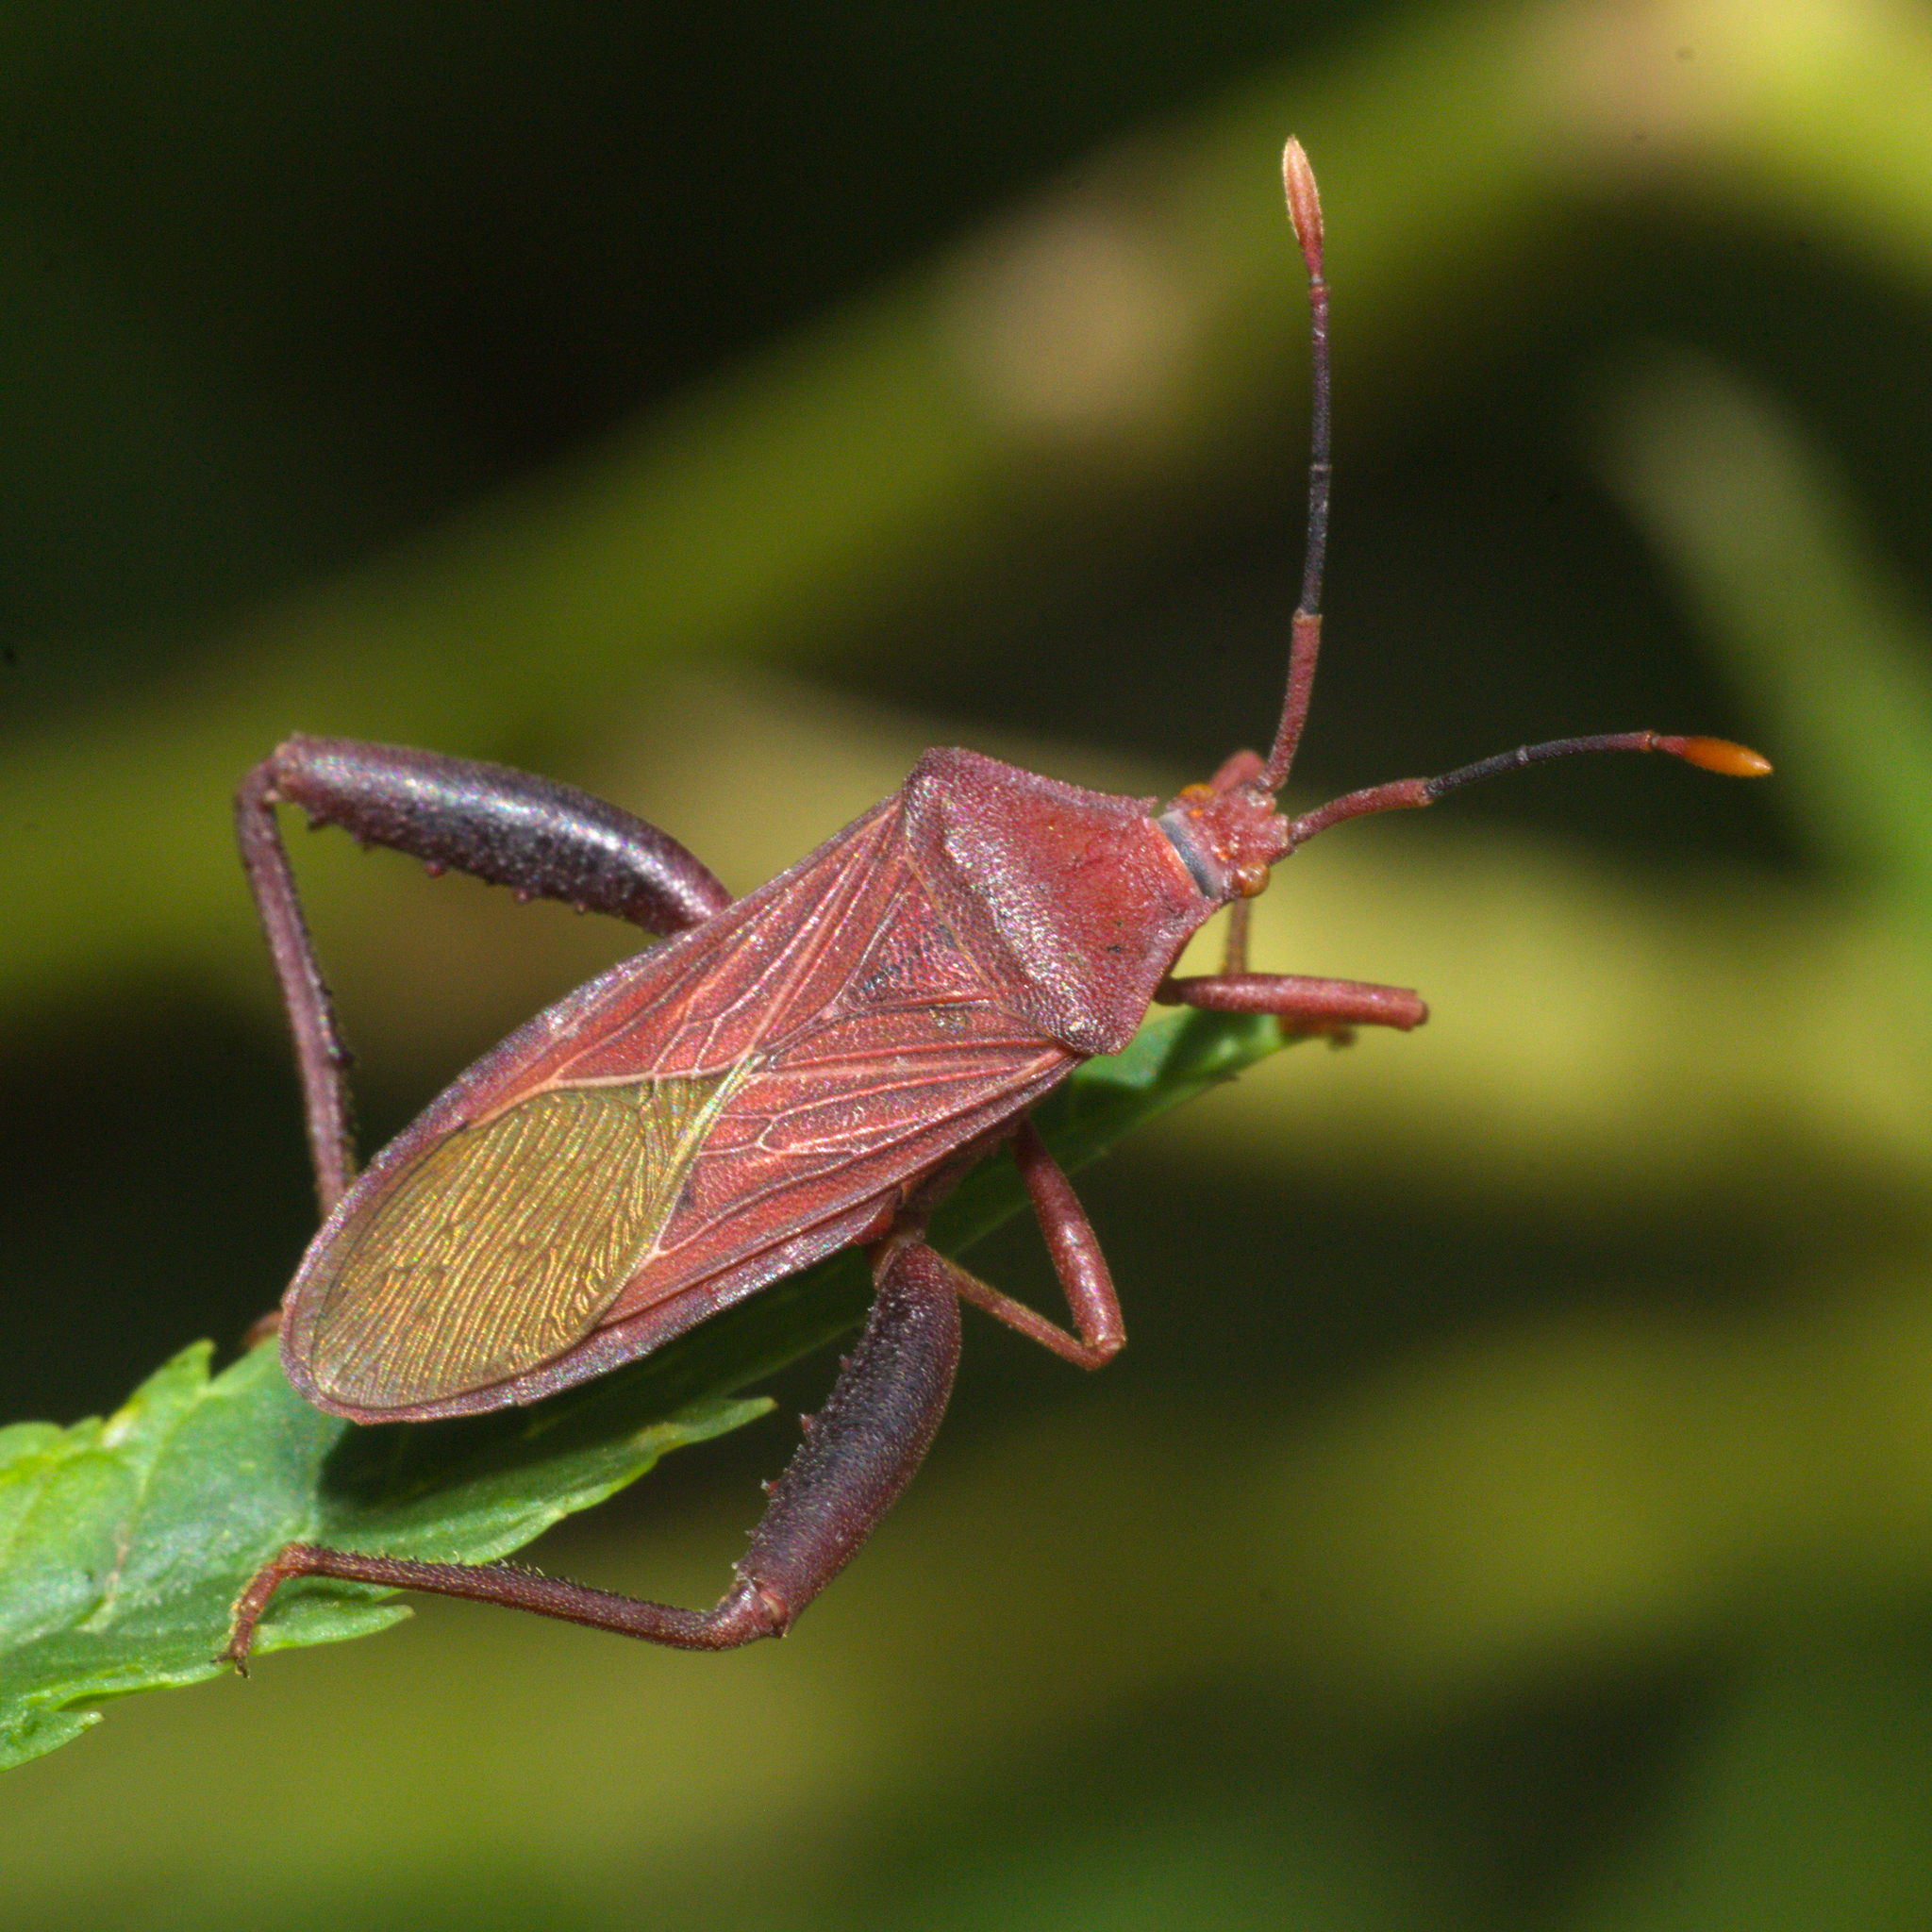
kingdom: Animalia
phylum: Arthropoda
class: Insecta
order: Hemiptera
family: Coreidae
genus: Athaumastus
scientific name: Athaumastus haematicus
